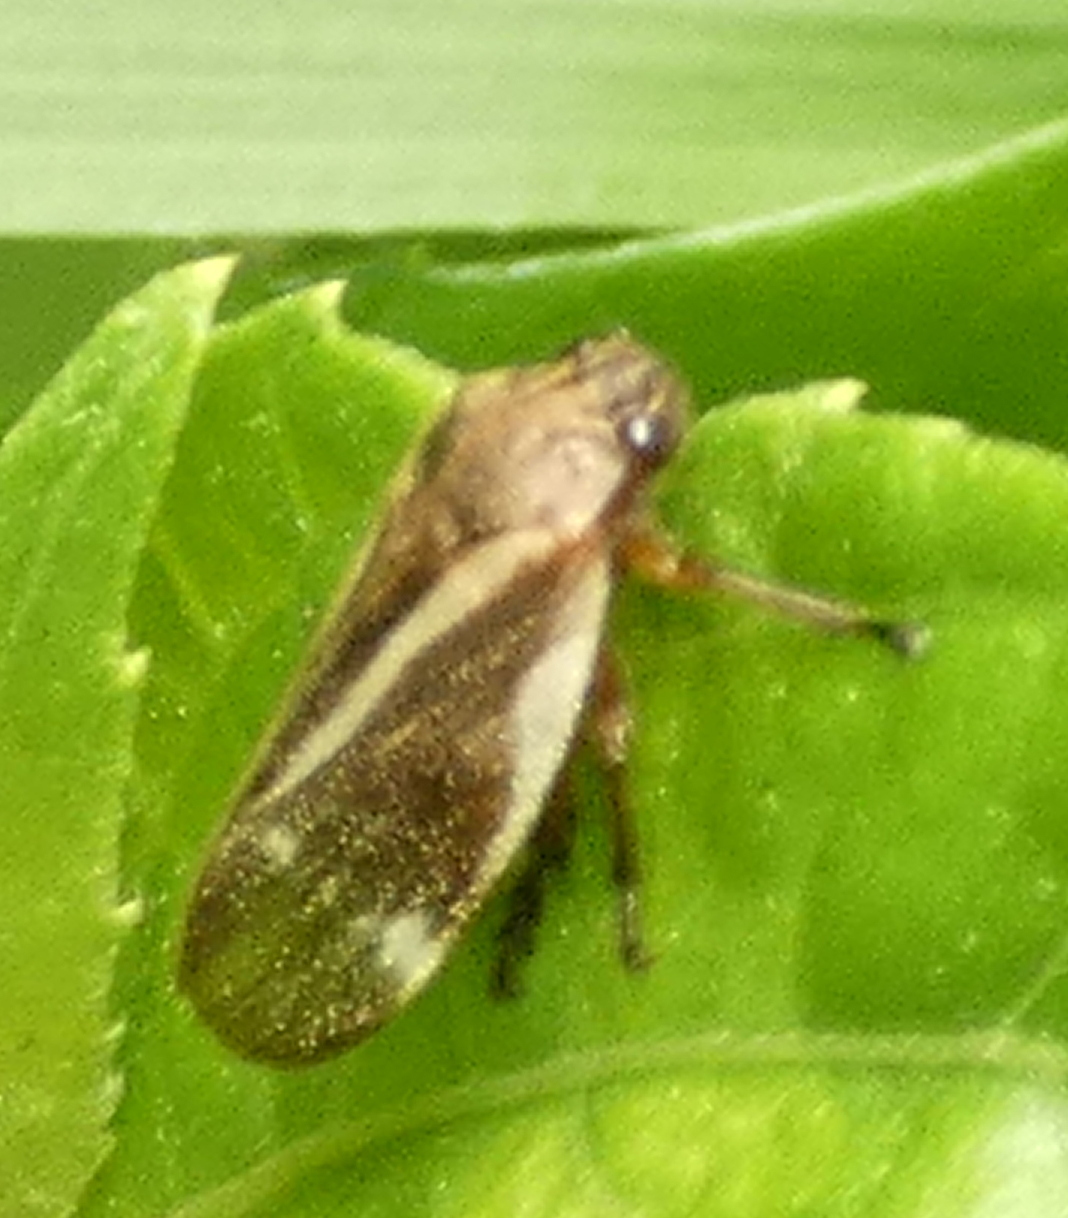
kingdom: Animalia
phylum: Arthropoda
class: Insecta
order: Hemiptera
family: Cercopidae
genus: Notozulia
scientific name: Notozulia entreriana
